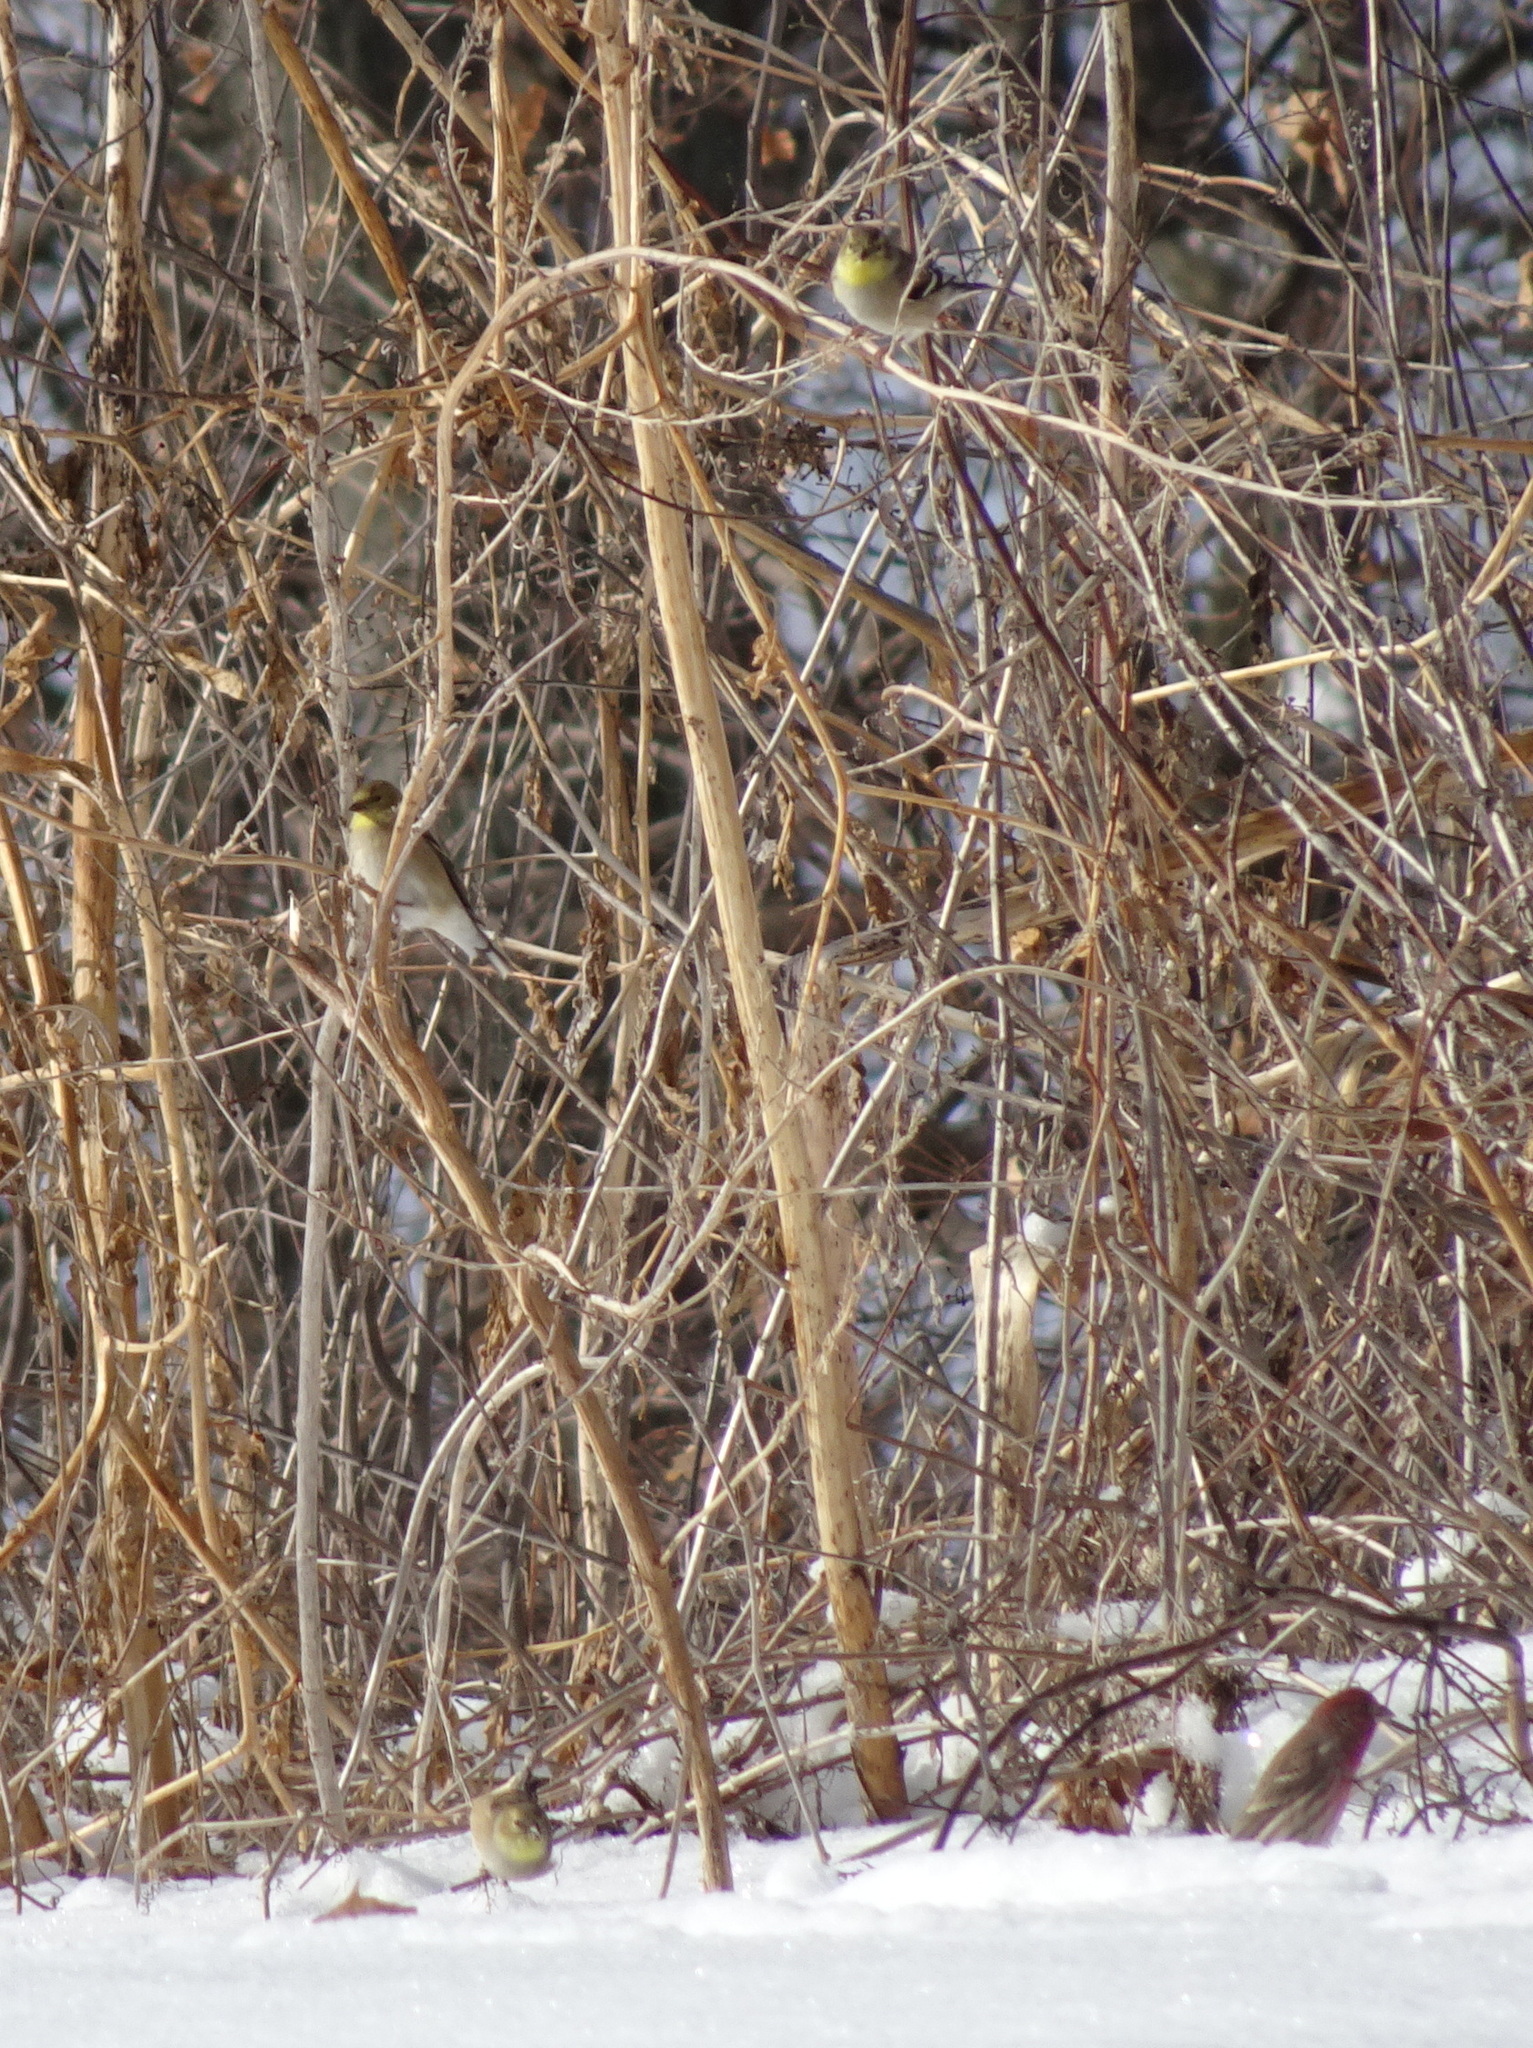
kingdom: Animalia
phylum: Chordata
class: Aves
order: Passeriformes
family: Fringillidae
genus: Spinus
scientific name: Spinus tristis
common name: American goldfinch
